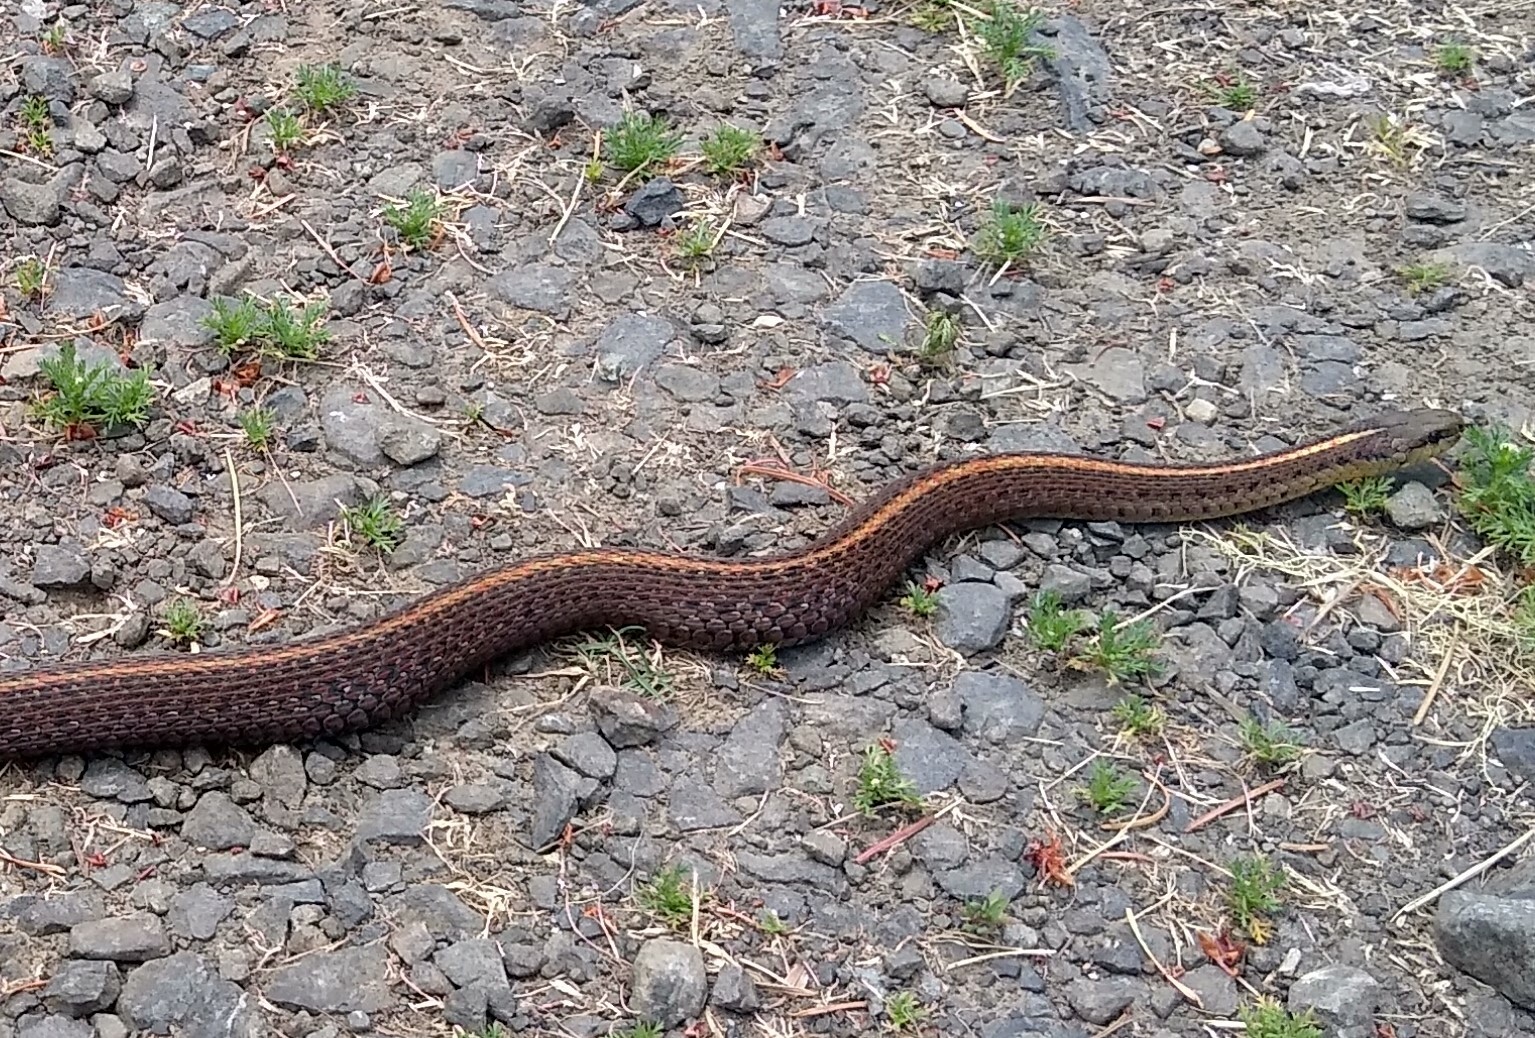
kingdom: Animalia
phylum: Chordata
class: Squamata
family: Colubridae
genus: Thamnophis
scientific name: Thamnophis ordinoides
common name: Northwestern garter snake
